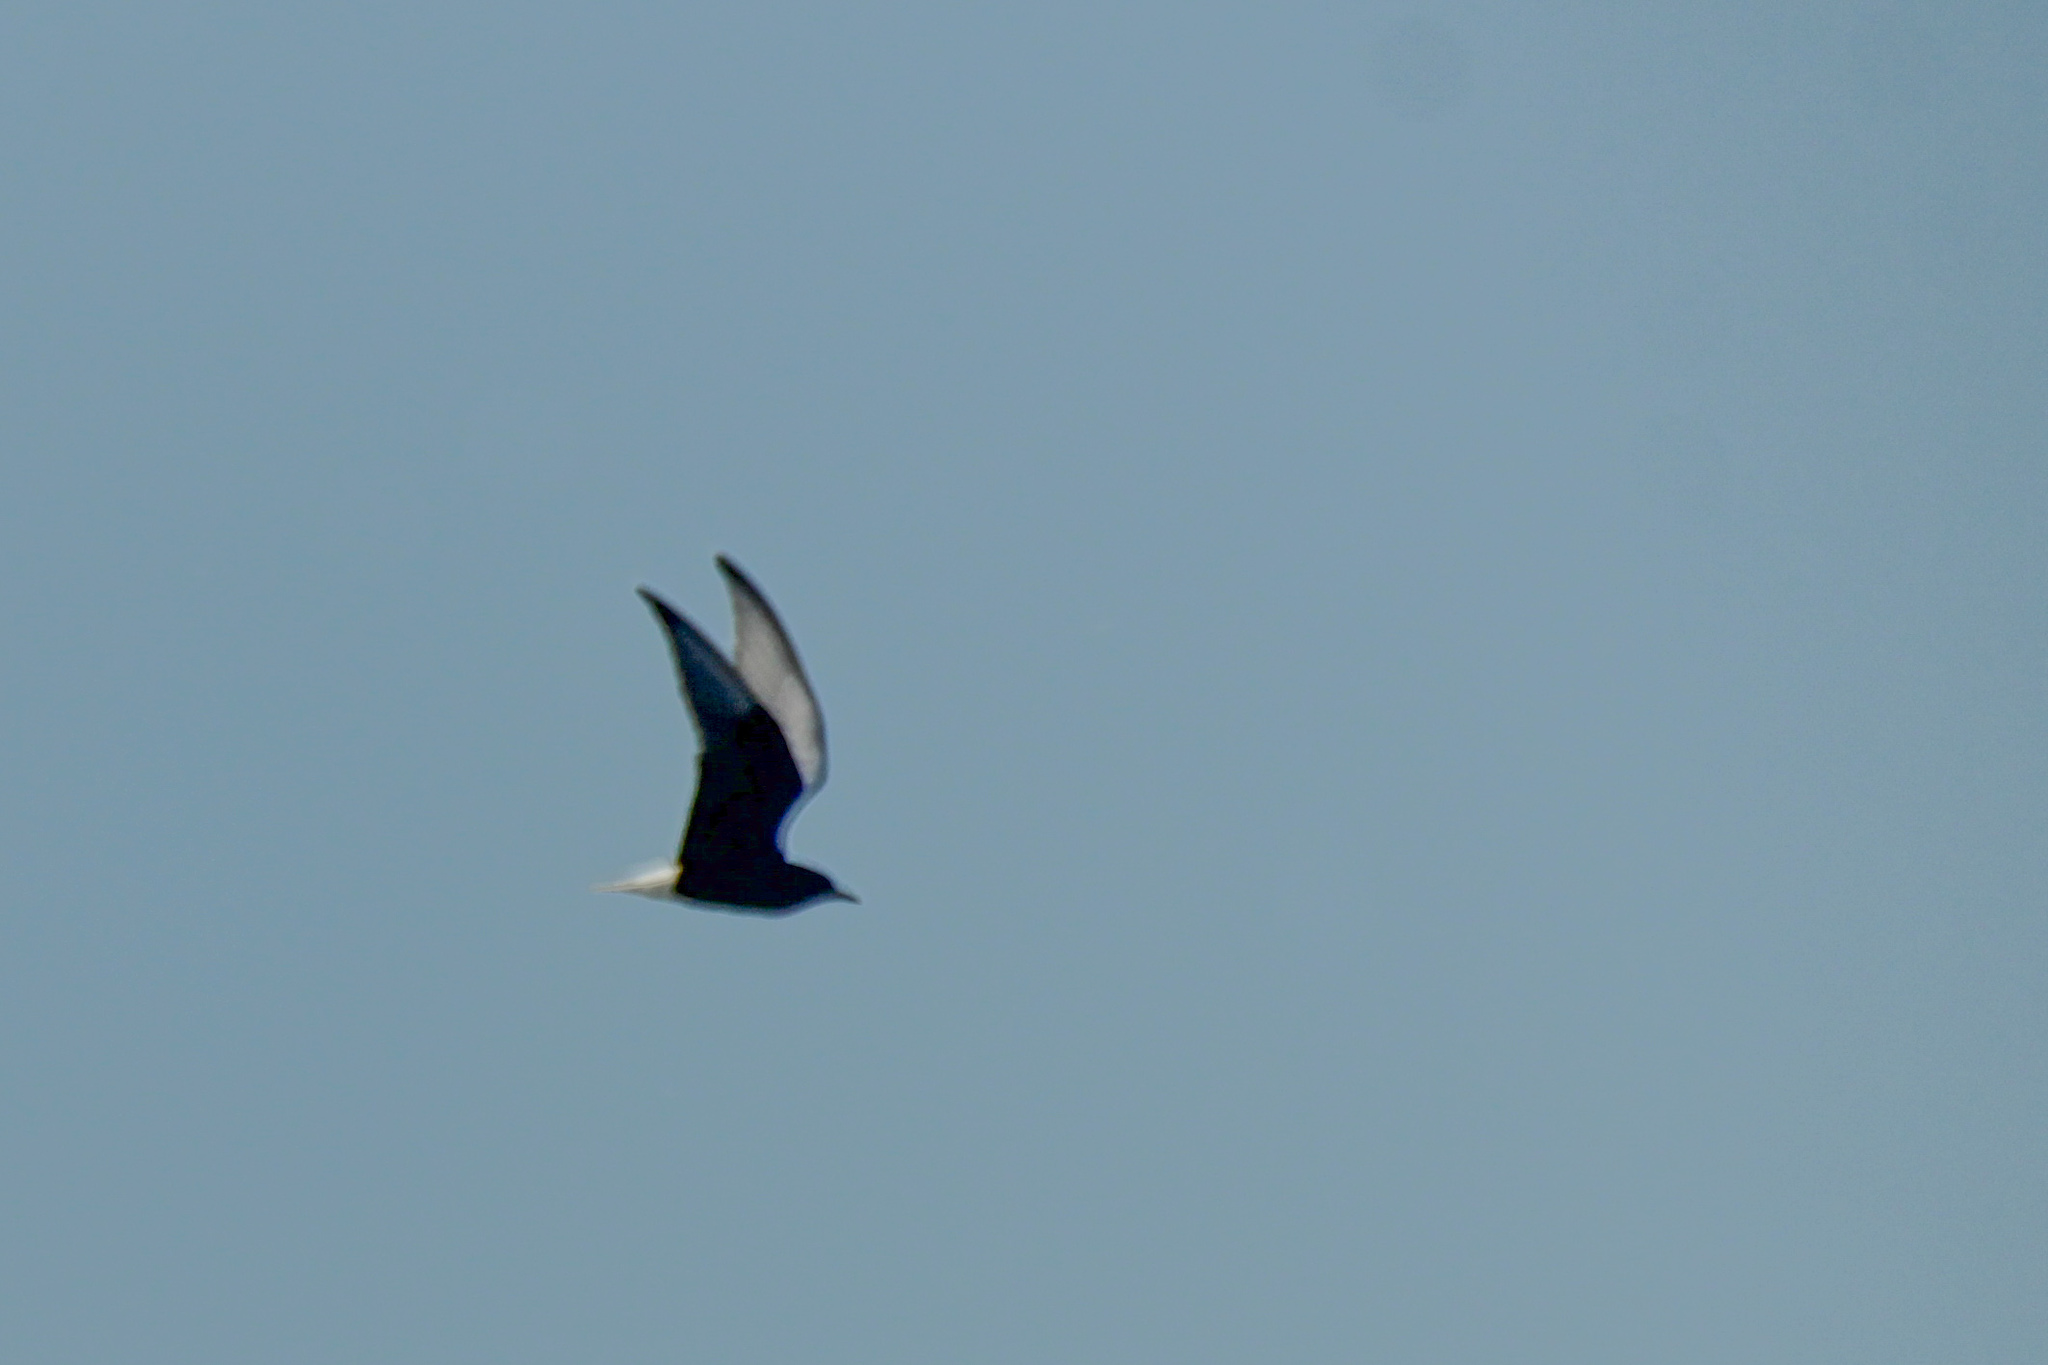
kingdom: Animalia
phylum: Chordata
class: Aves
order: Charadriiformes
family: Laridae
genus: Chlidonias
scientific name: Chlidonias leucopterus
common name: White-winged tern
